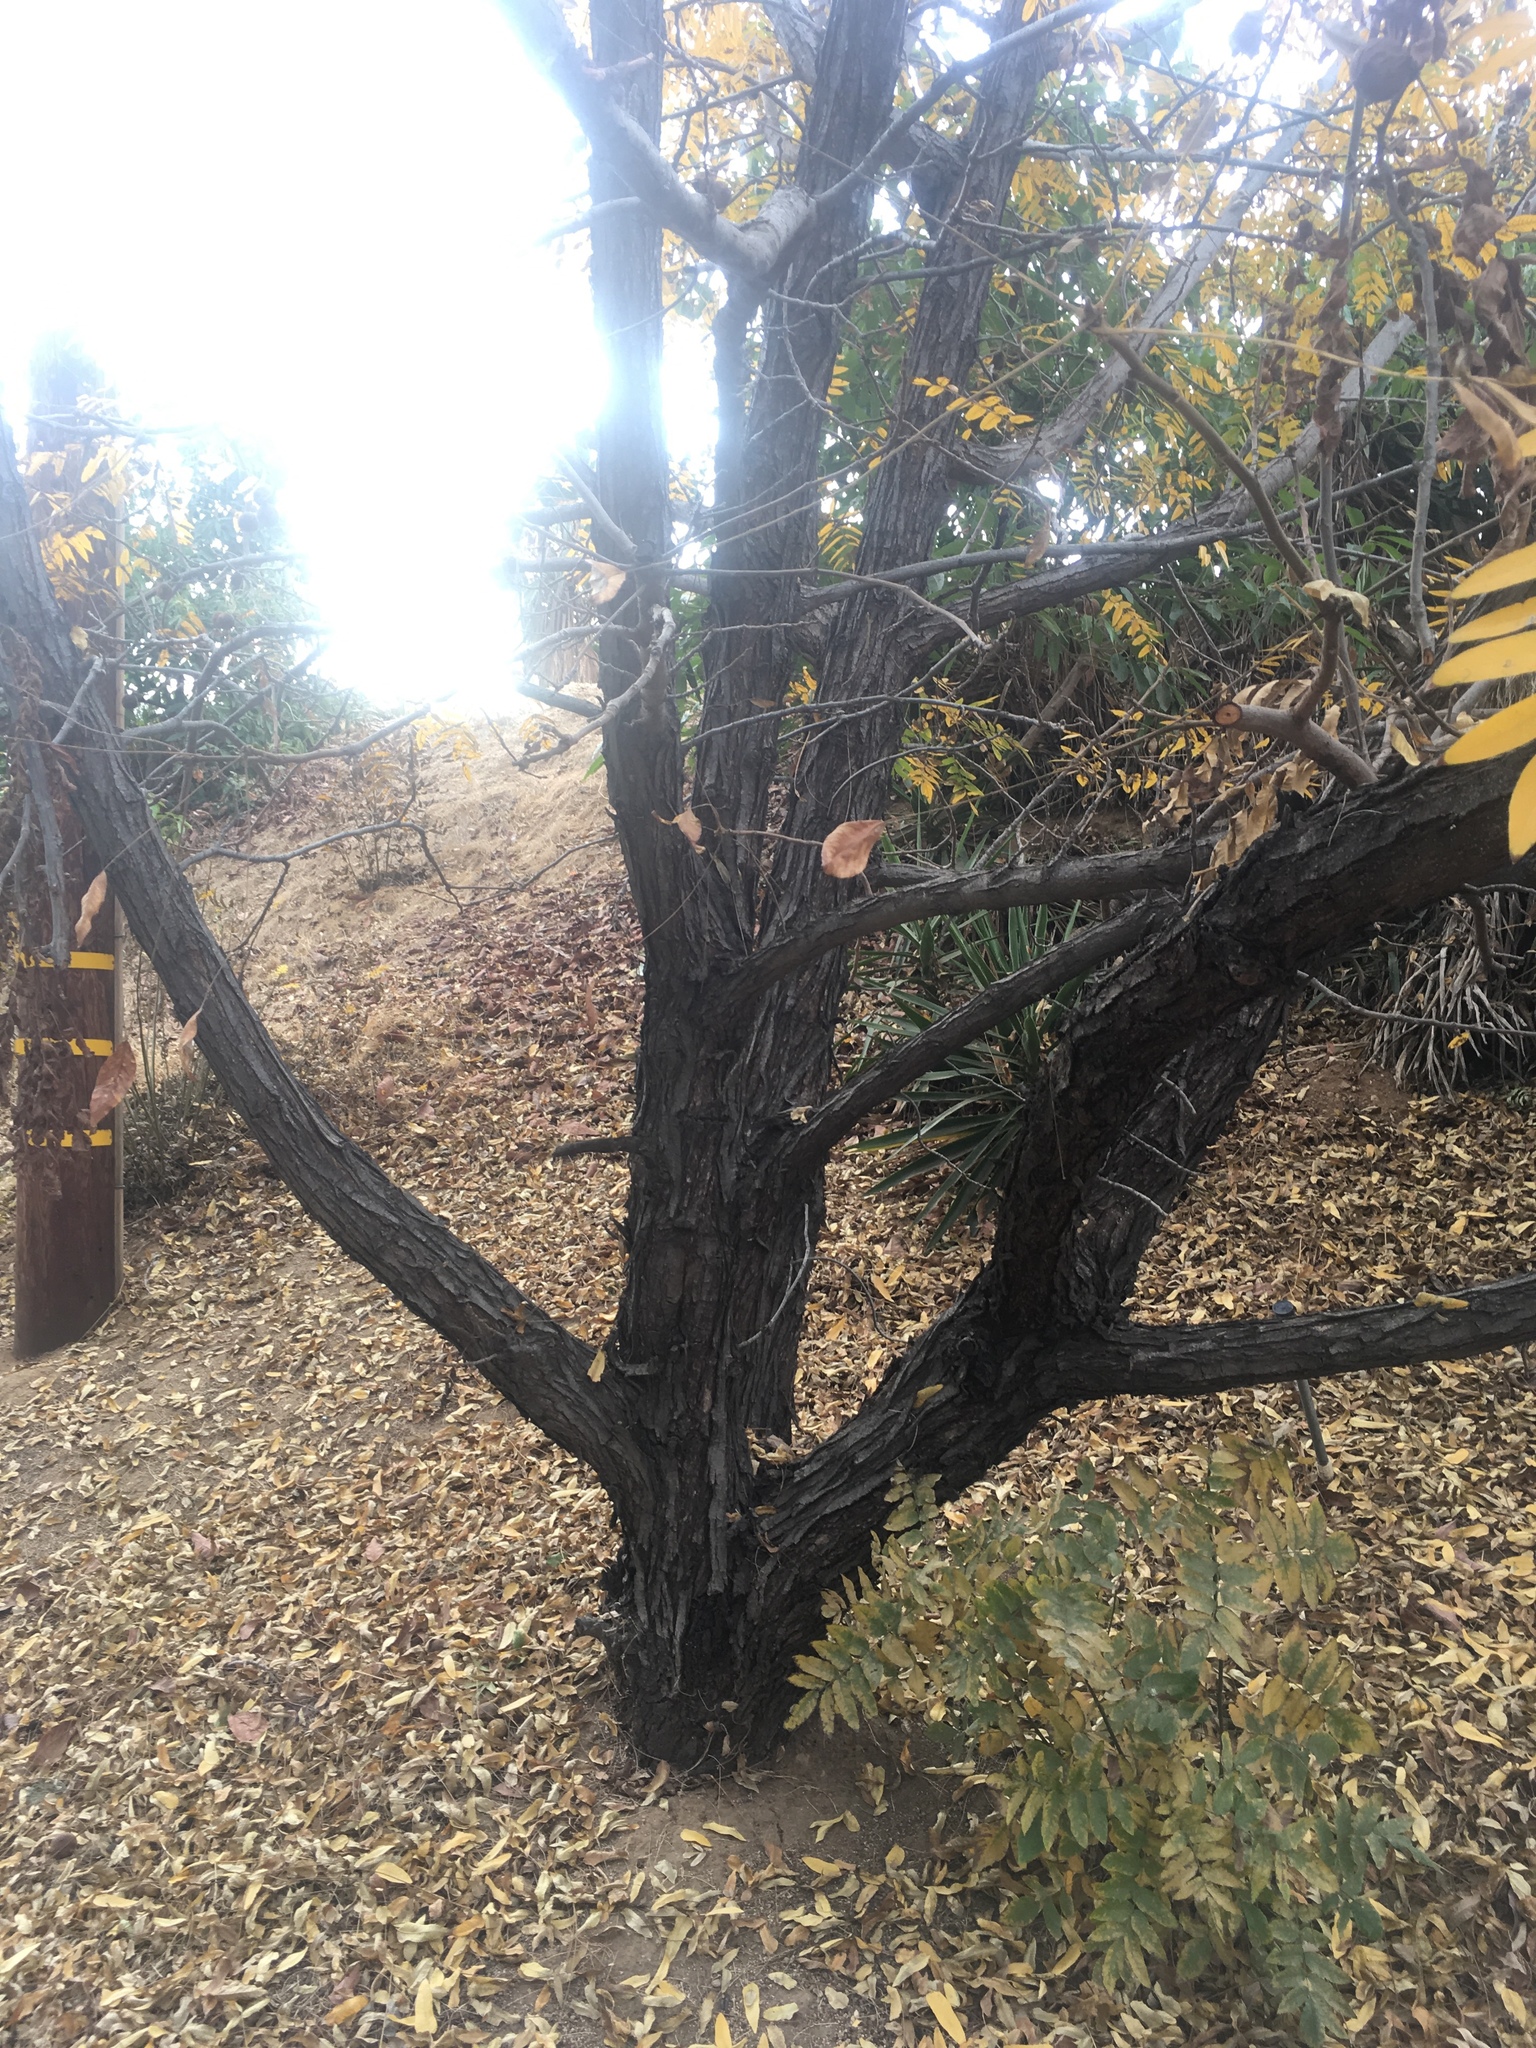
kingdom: Plantae
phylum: Tracheophyta
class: Magnoliopsida
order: Fagales
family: Juglandaceae
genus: Juglans
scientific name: Juglans californica
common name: Southern california black walnut
